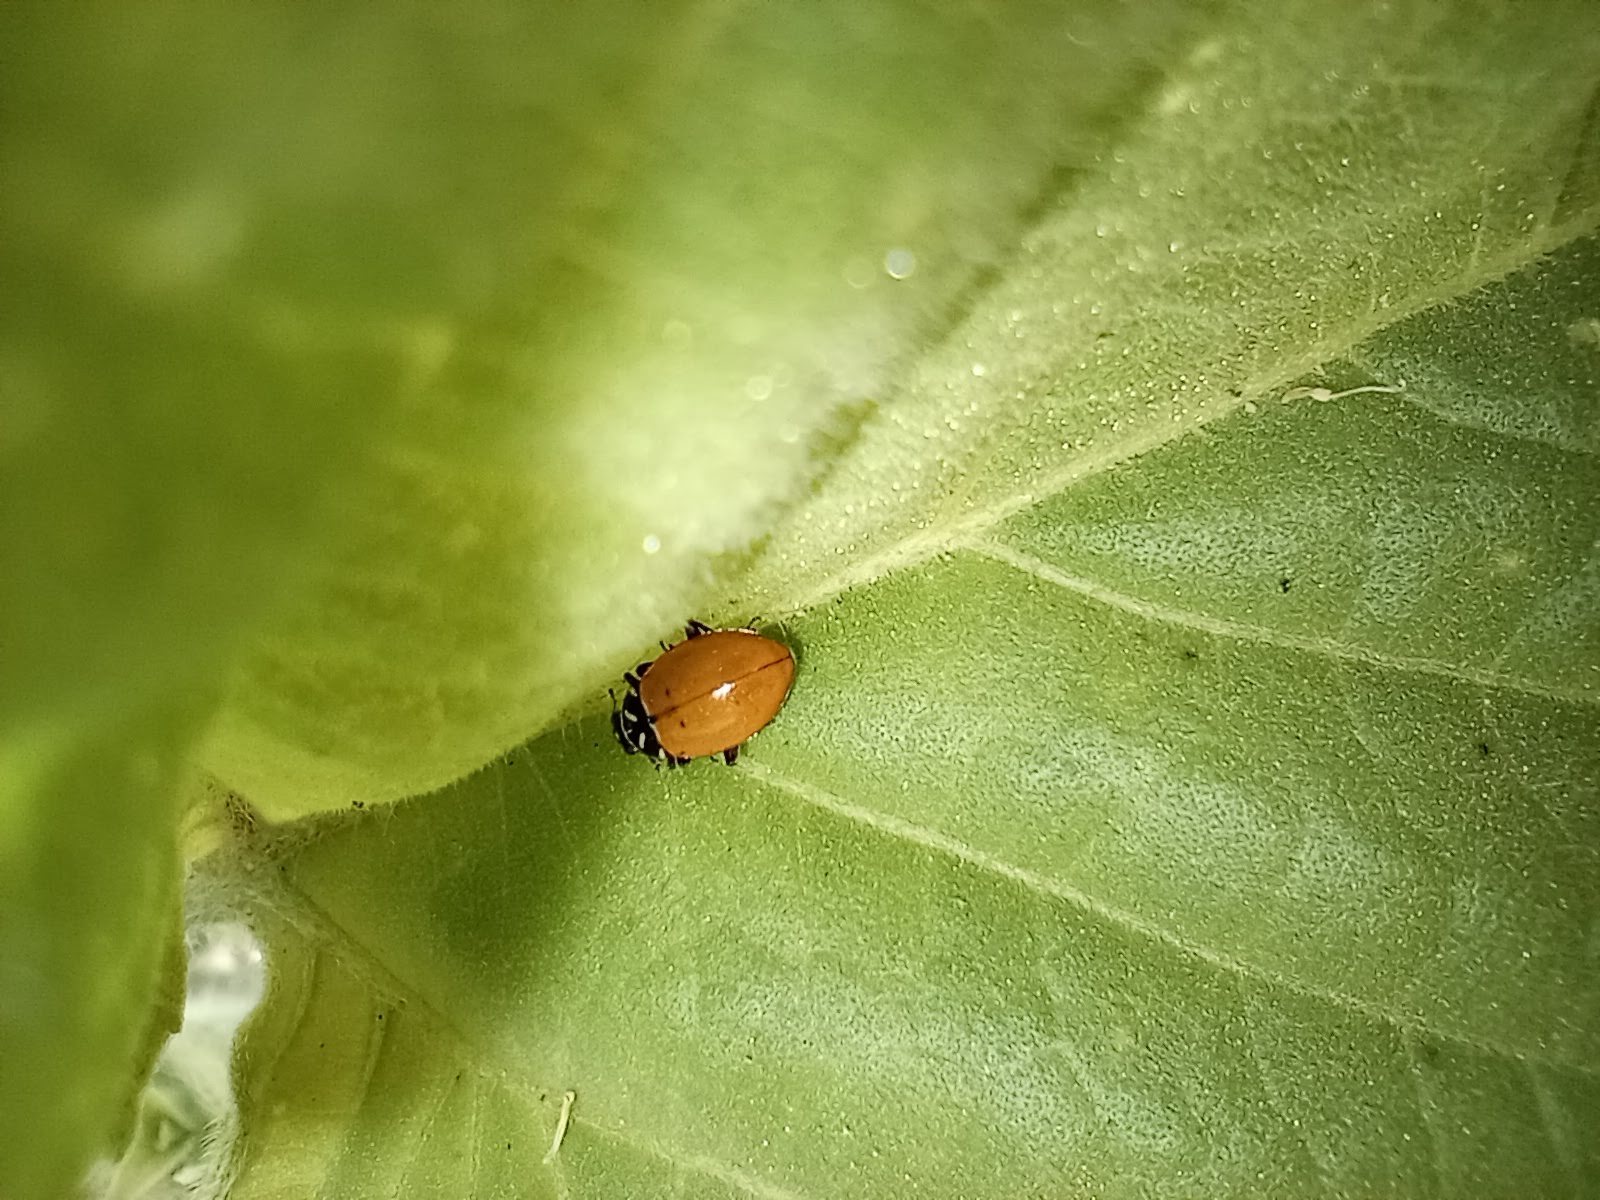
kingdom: Animalia
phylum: Arthropoda
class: Insecta
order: Coleoptera
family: Coccinellidae
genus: Hippodamia
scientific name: Hippodamia convergens
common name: Convergent lady beetle
